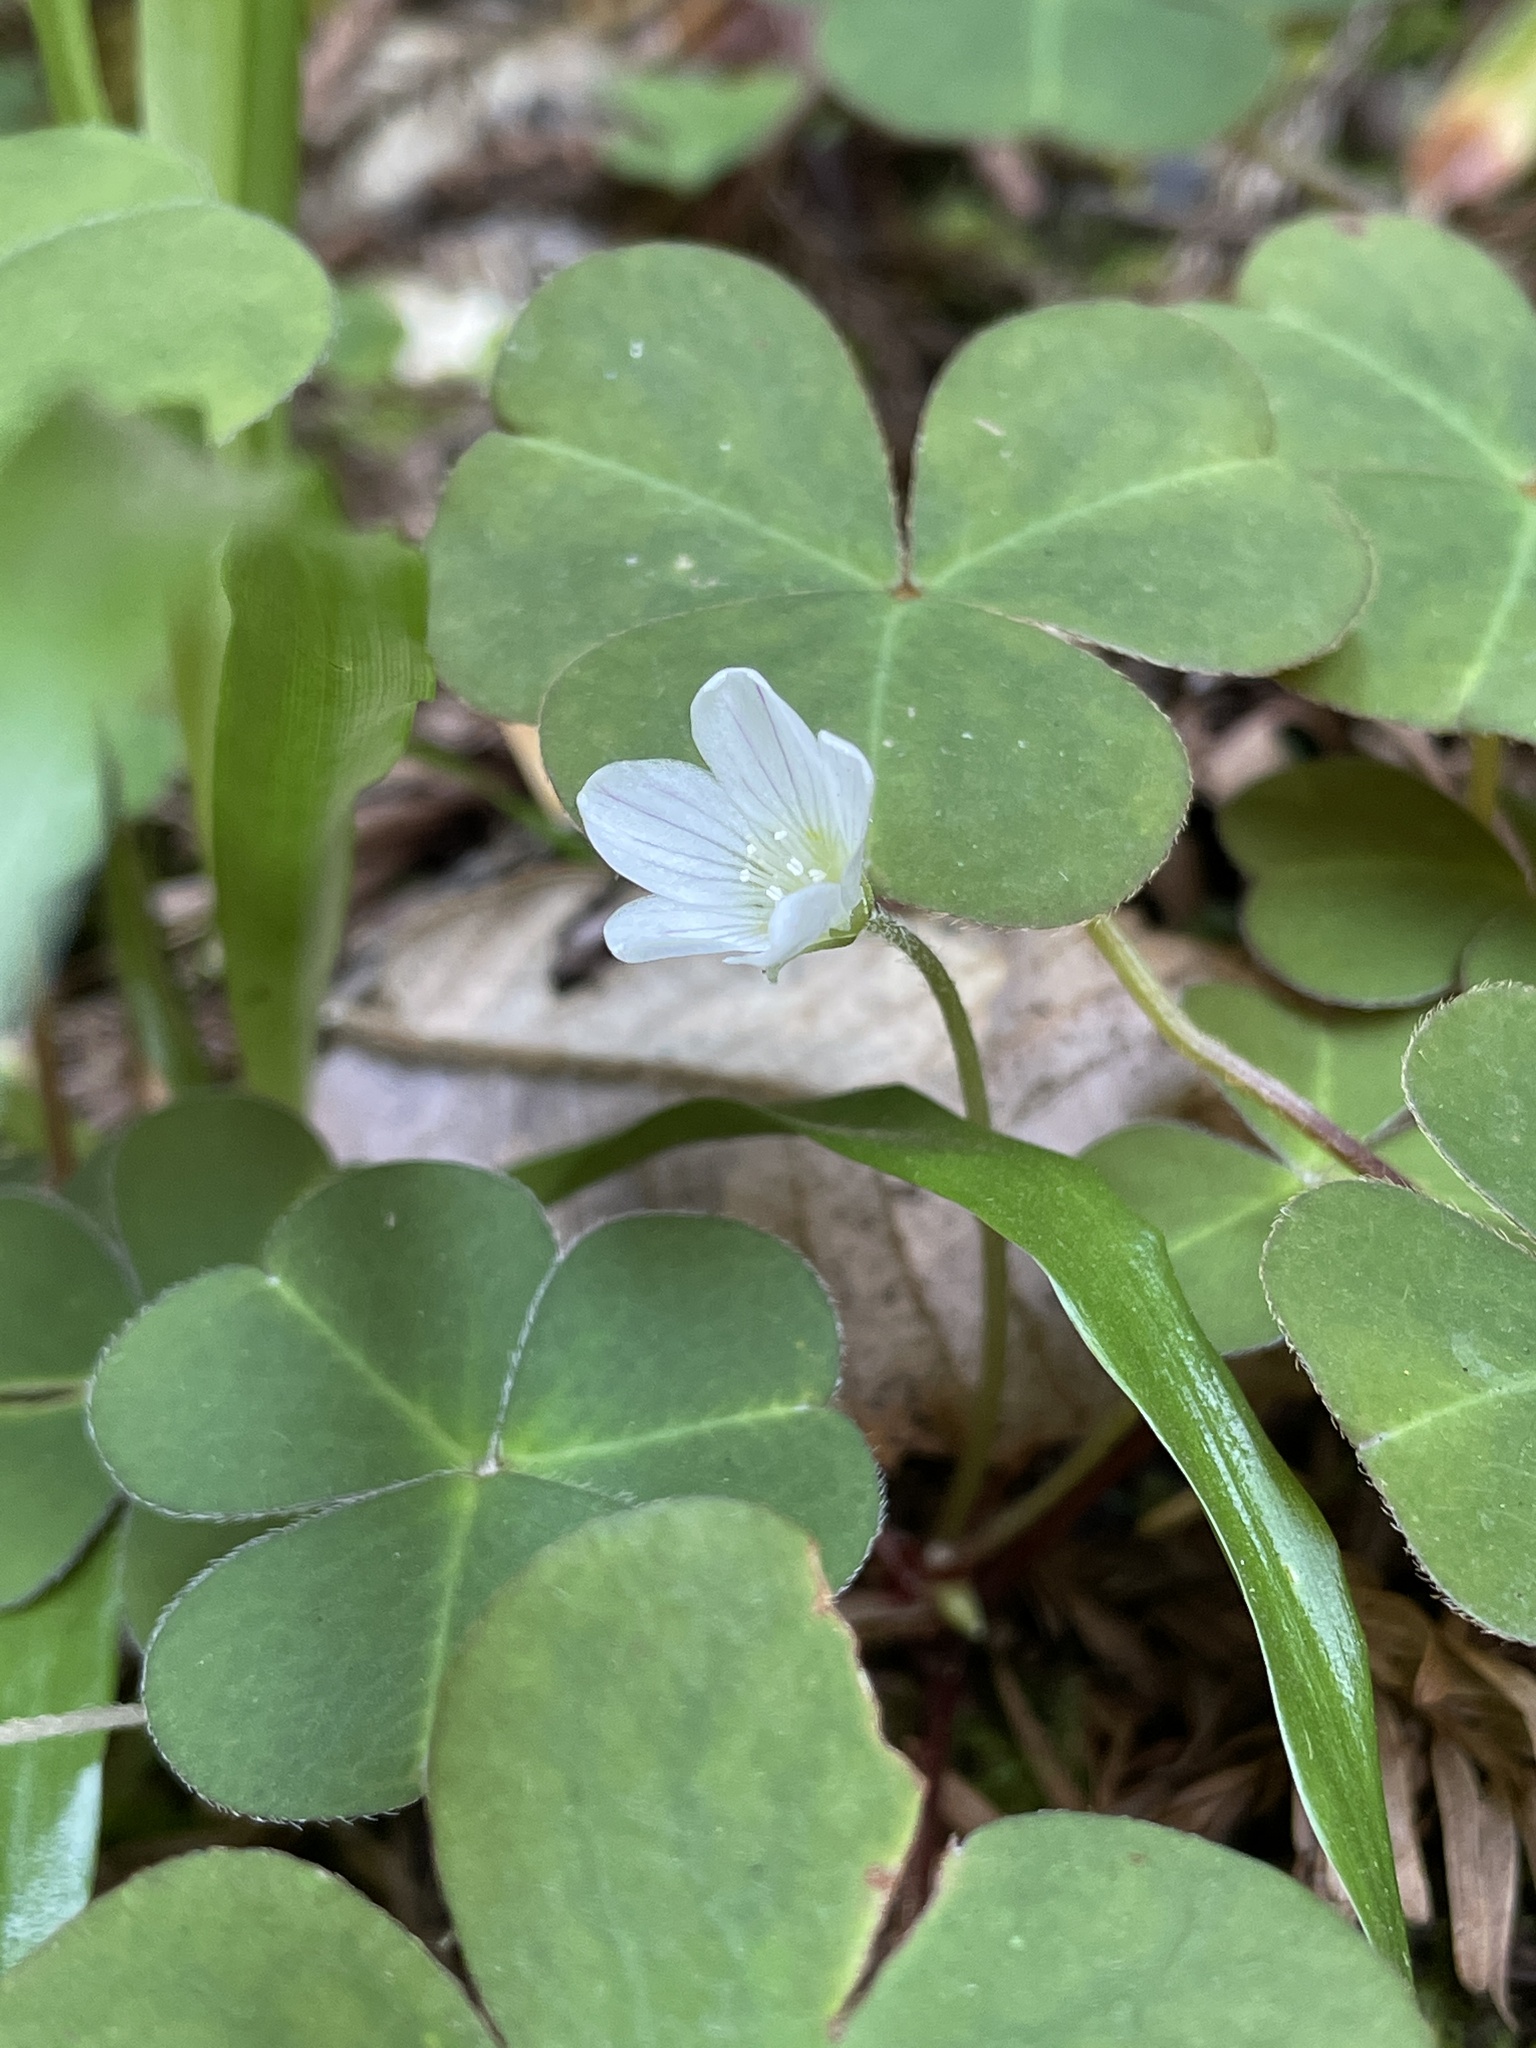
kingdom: Plantae
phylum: Tracheophyta
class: Magnoliopsida
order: Oxalidales
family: Oxalidaceae
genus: Oxalis
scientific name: Oxalis oregana
